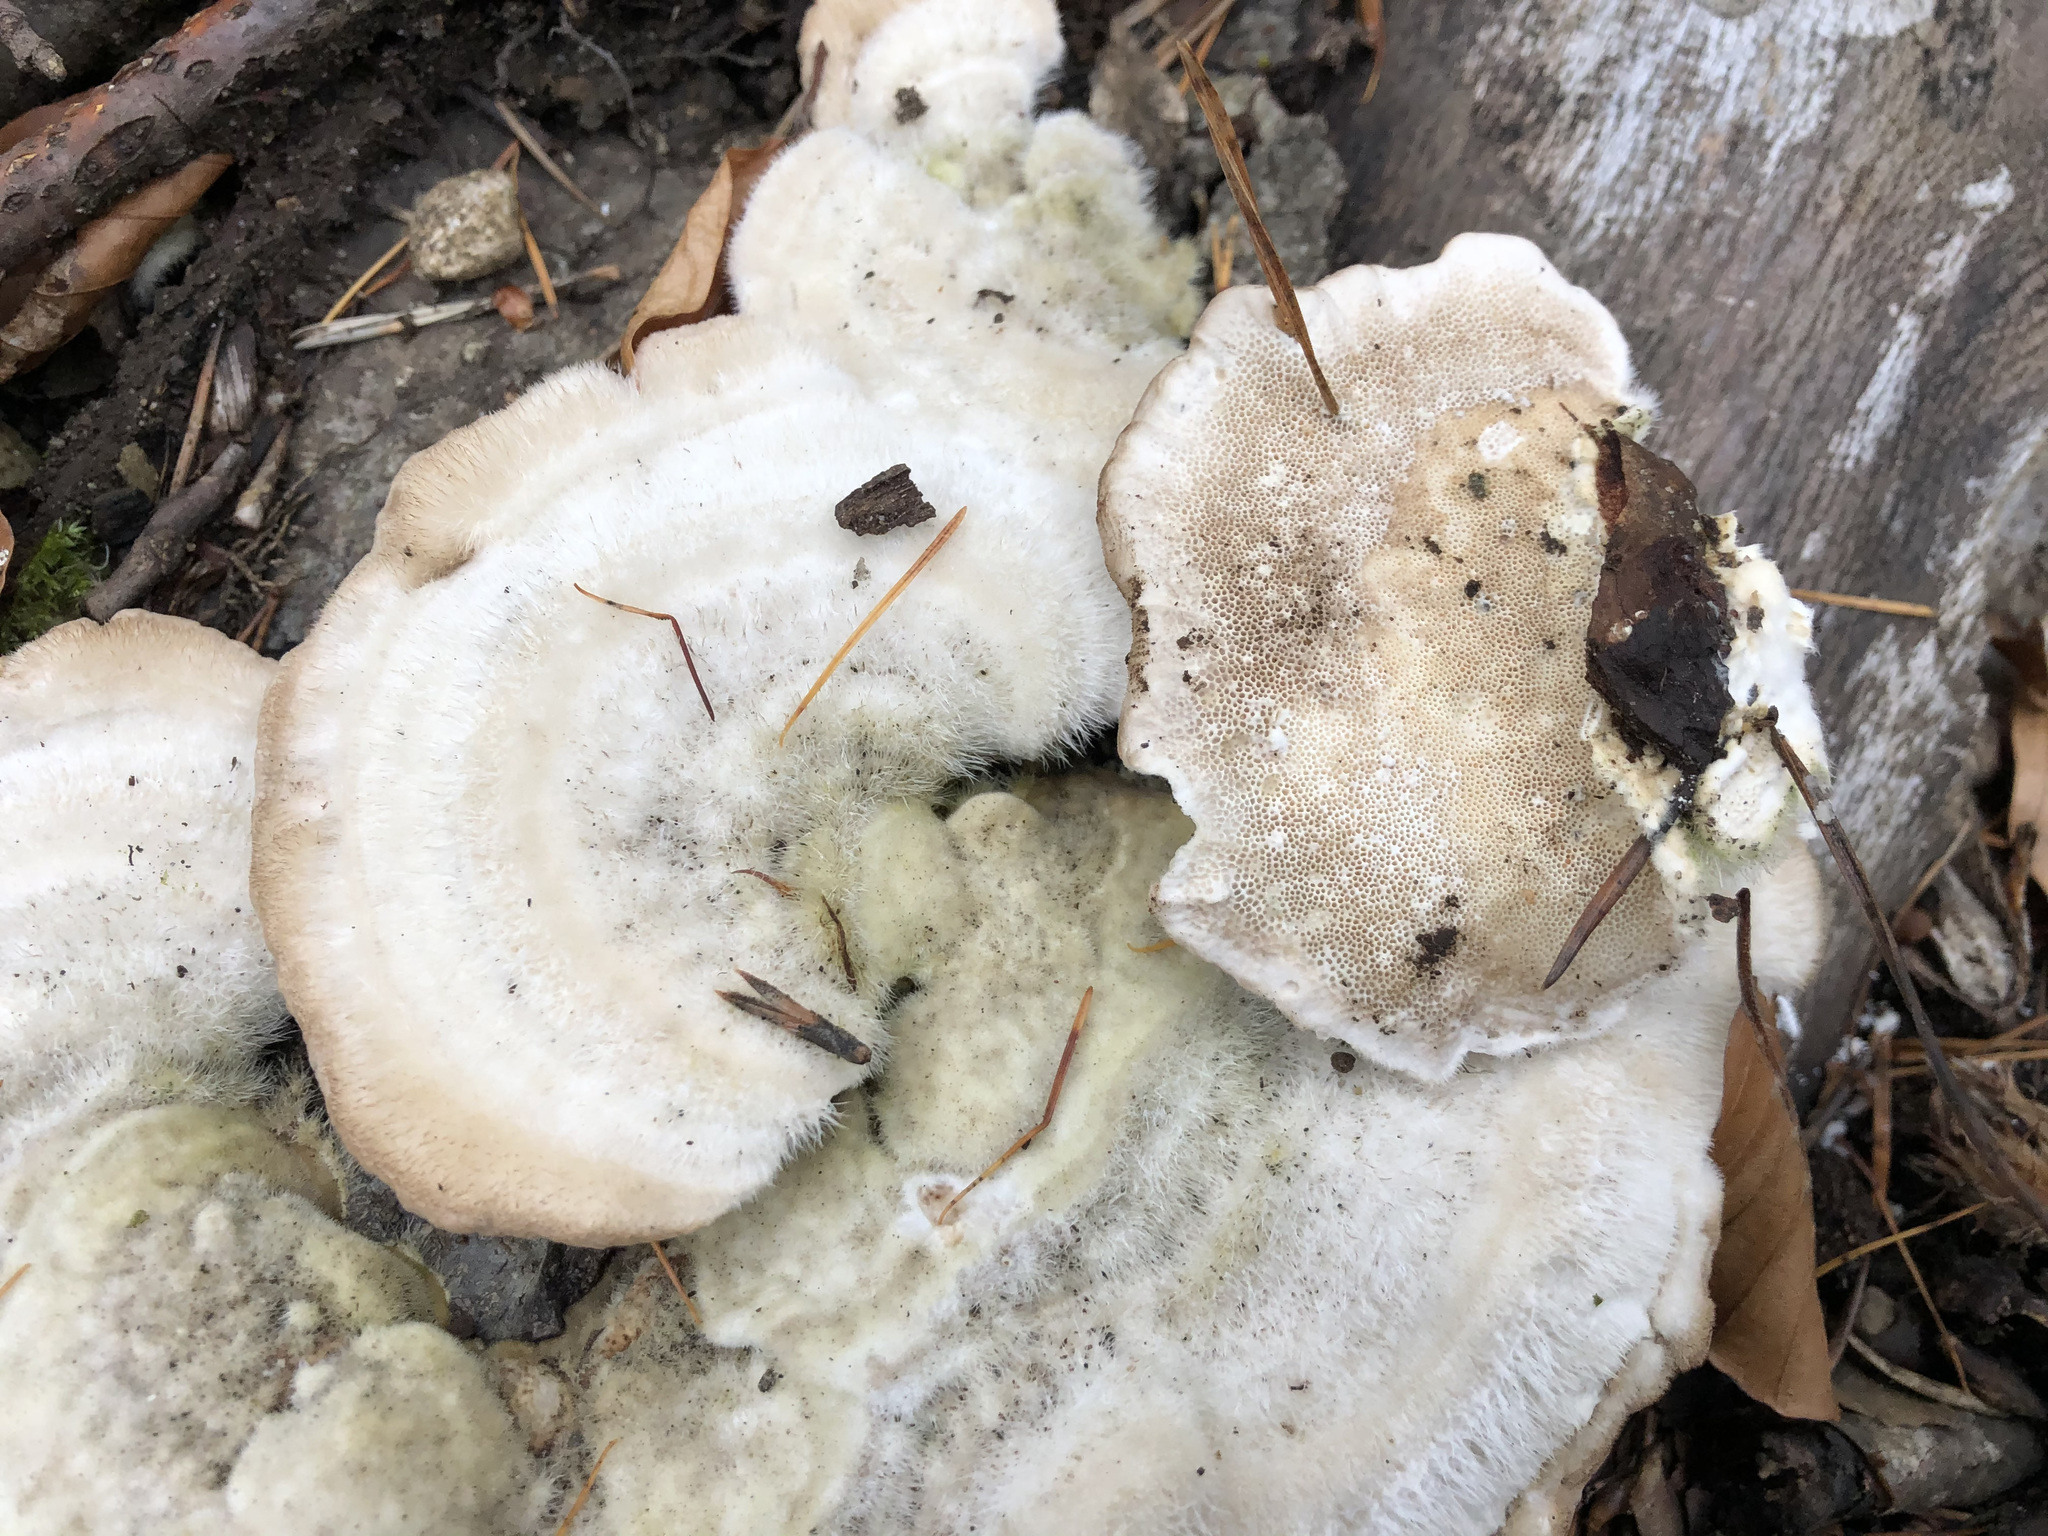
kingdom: Fungi
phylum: Basidiomycota
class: Agaricomycetes
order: Polyporales
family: Polyporaceae
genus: Trametes
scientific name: Trametes hirsuta
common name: Hairy bracket
